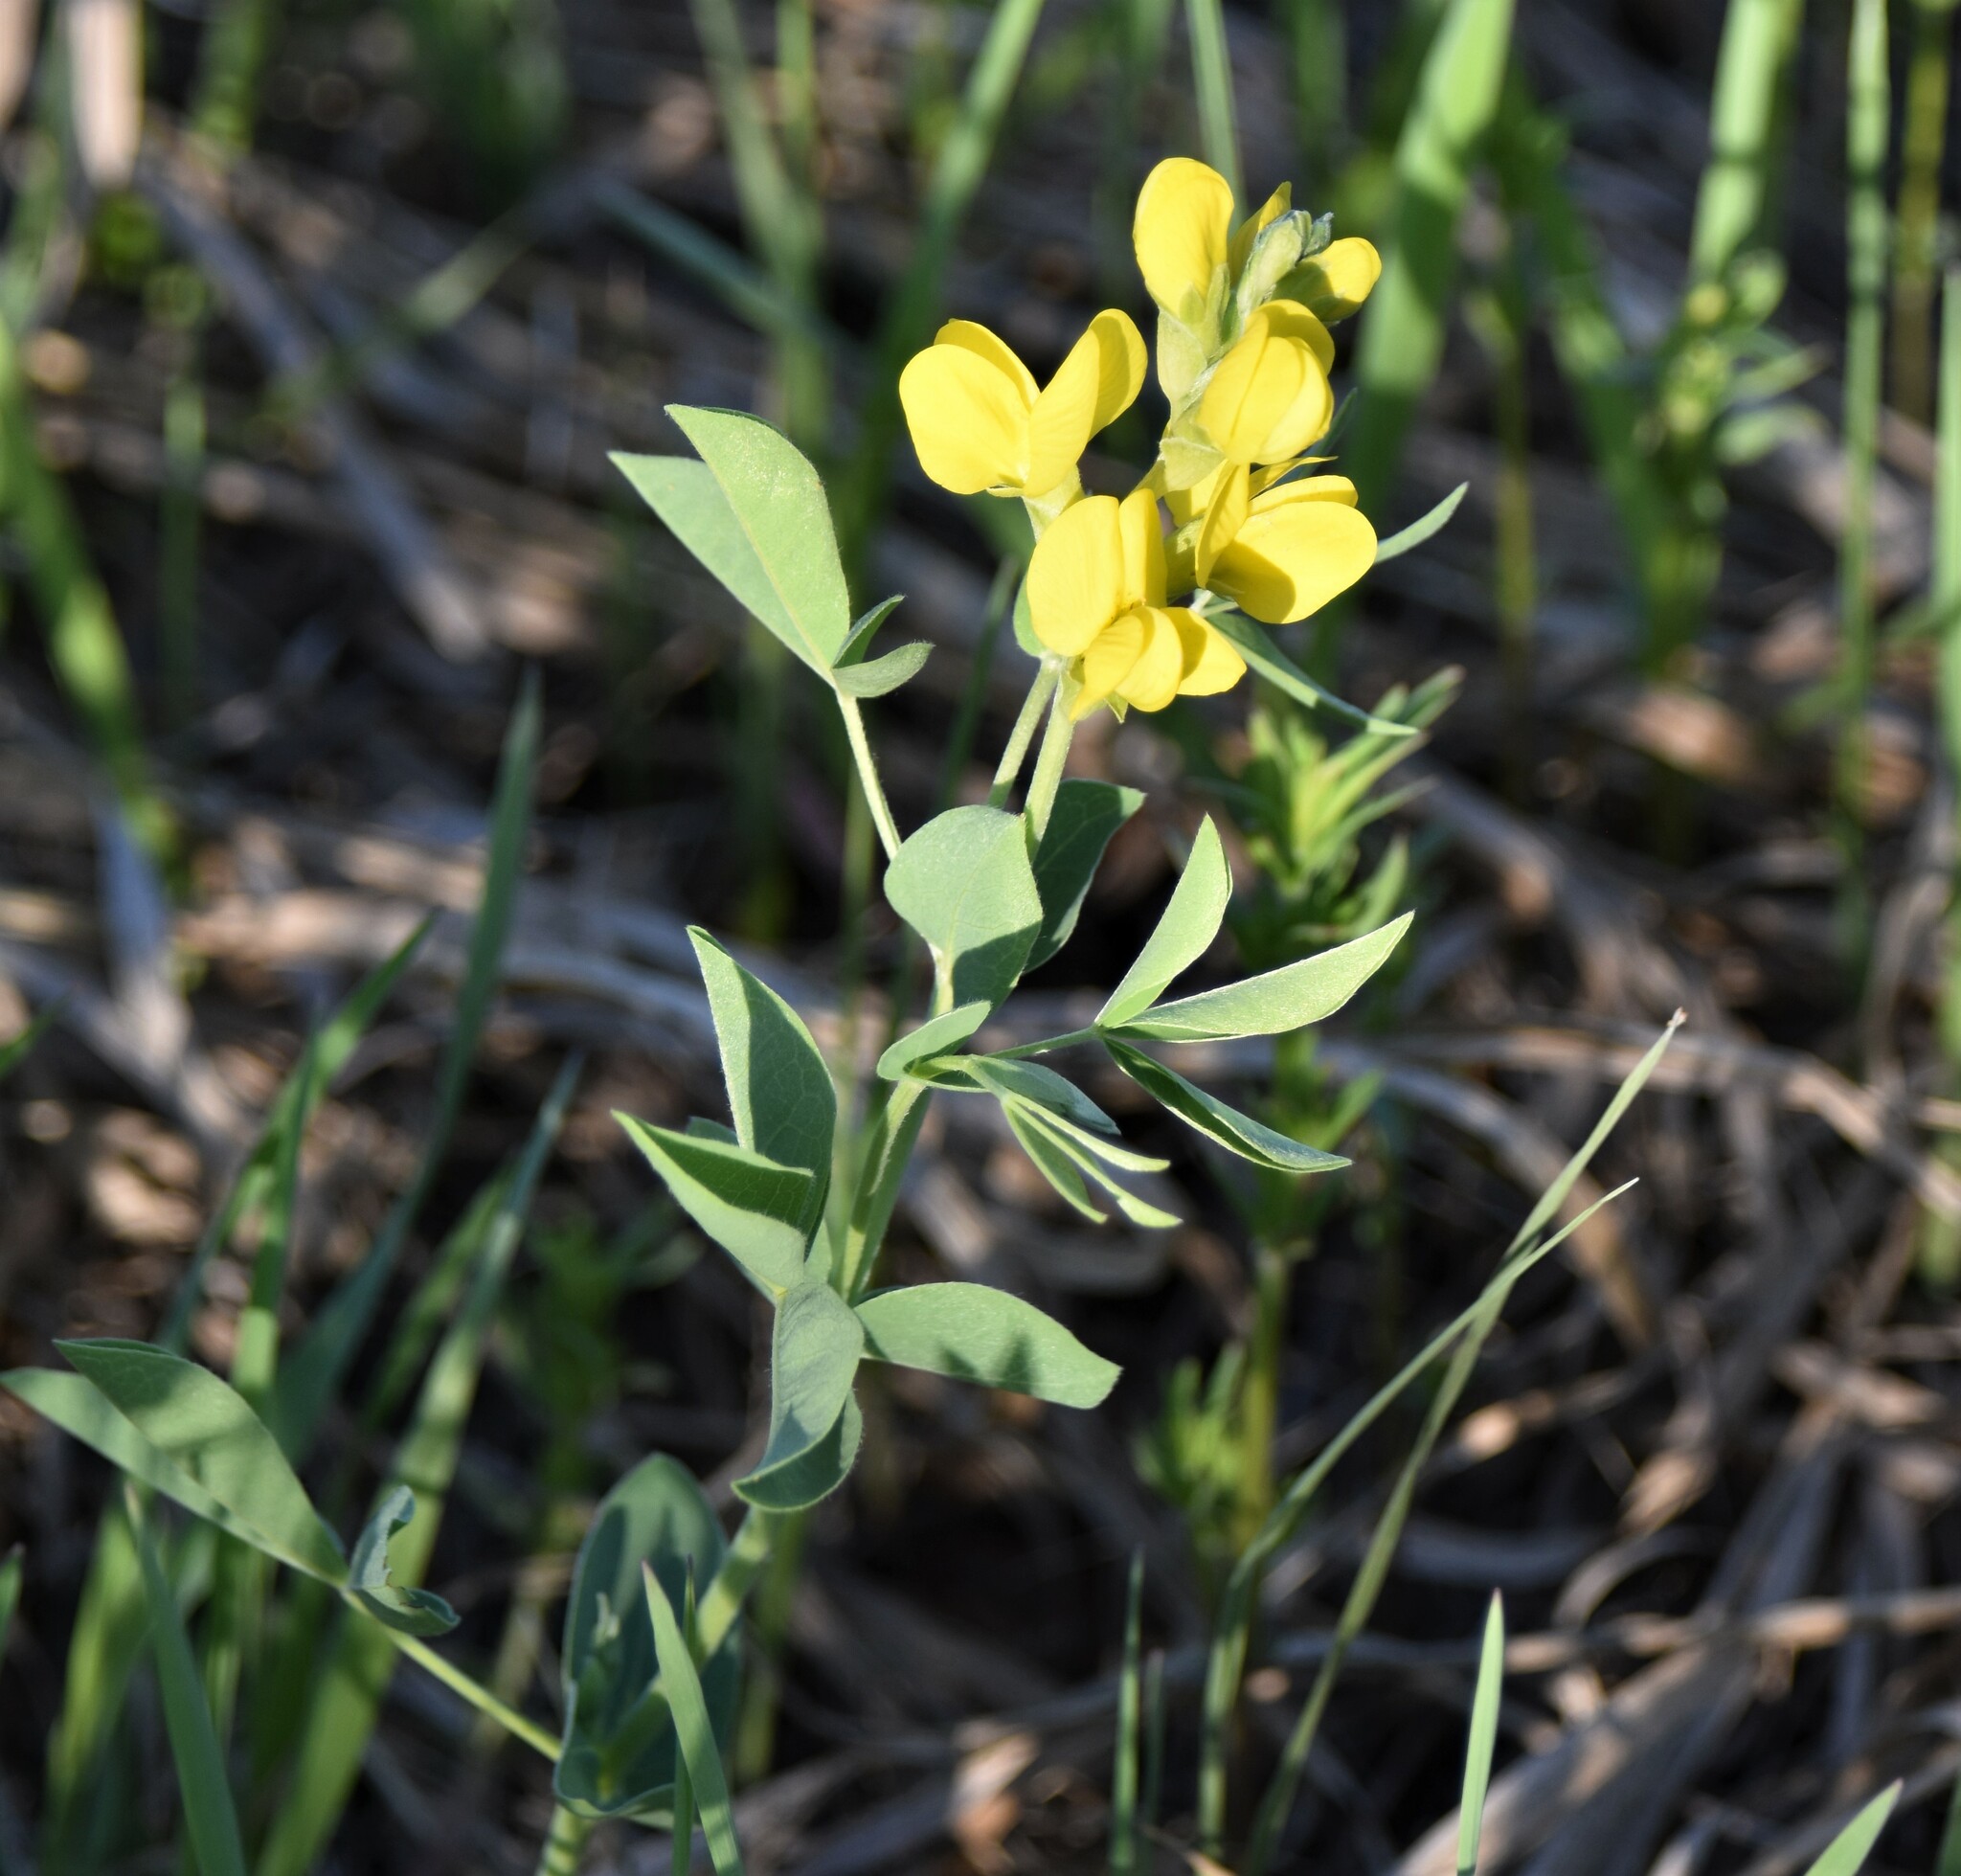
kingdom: Plantae
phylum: Tracheophyta
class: Magnoliopsida
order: Fabales
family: Fabaceae
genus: Thermopsis
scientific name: Thermopsis rhombifolia
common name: Circle-pod-pea
